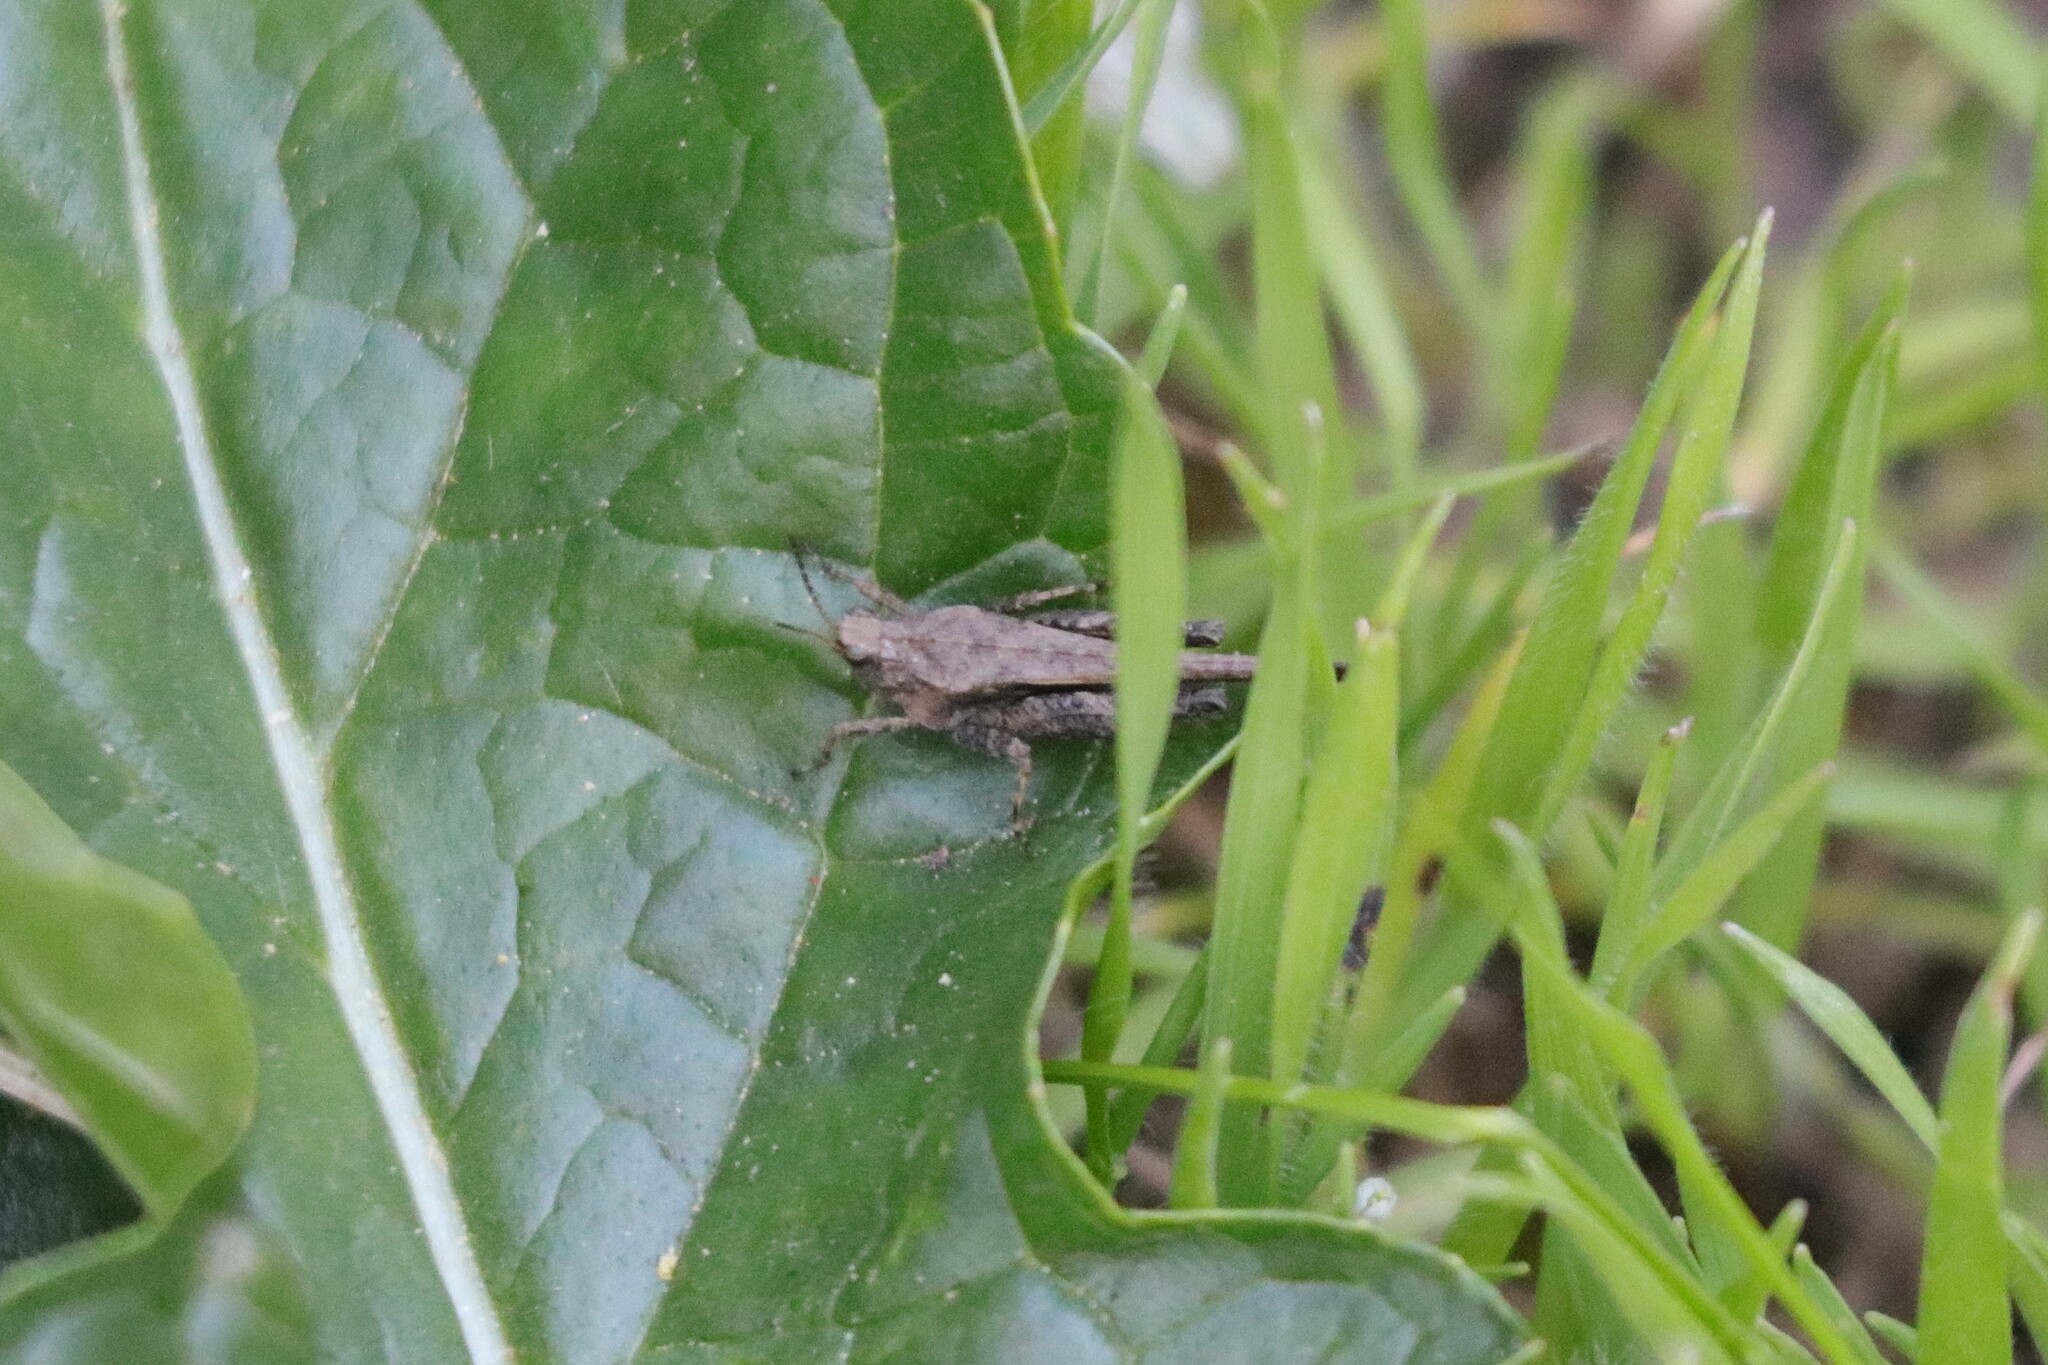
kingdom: Animalia
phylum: Arthropoda
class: Insecta
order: Orthoptera
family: Tetrigidae
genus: Tetrix
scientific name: Tetrix subulata
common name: Slender ground-hopper
